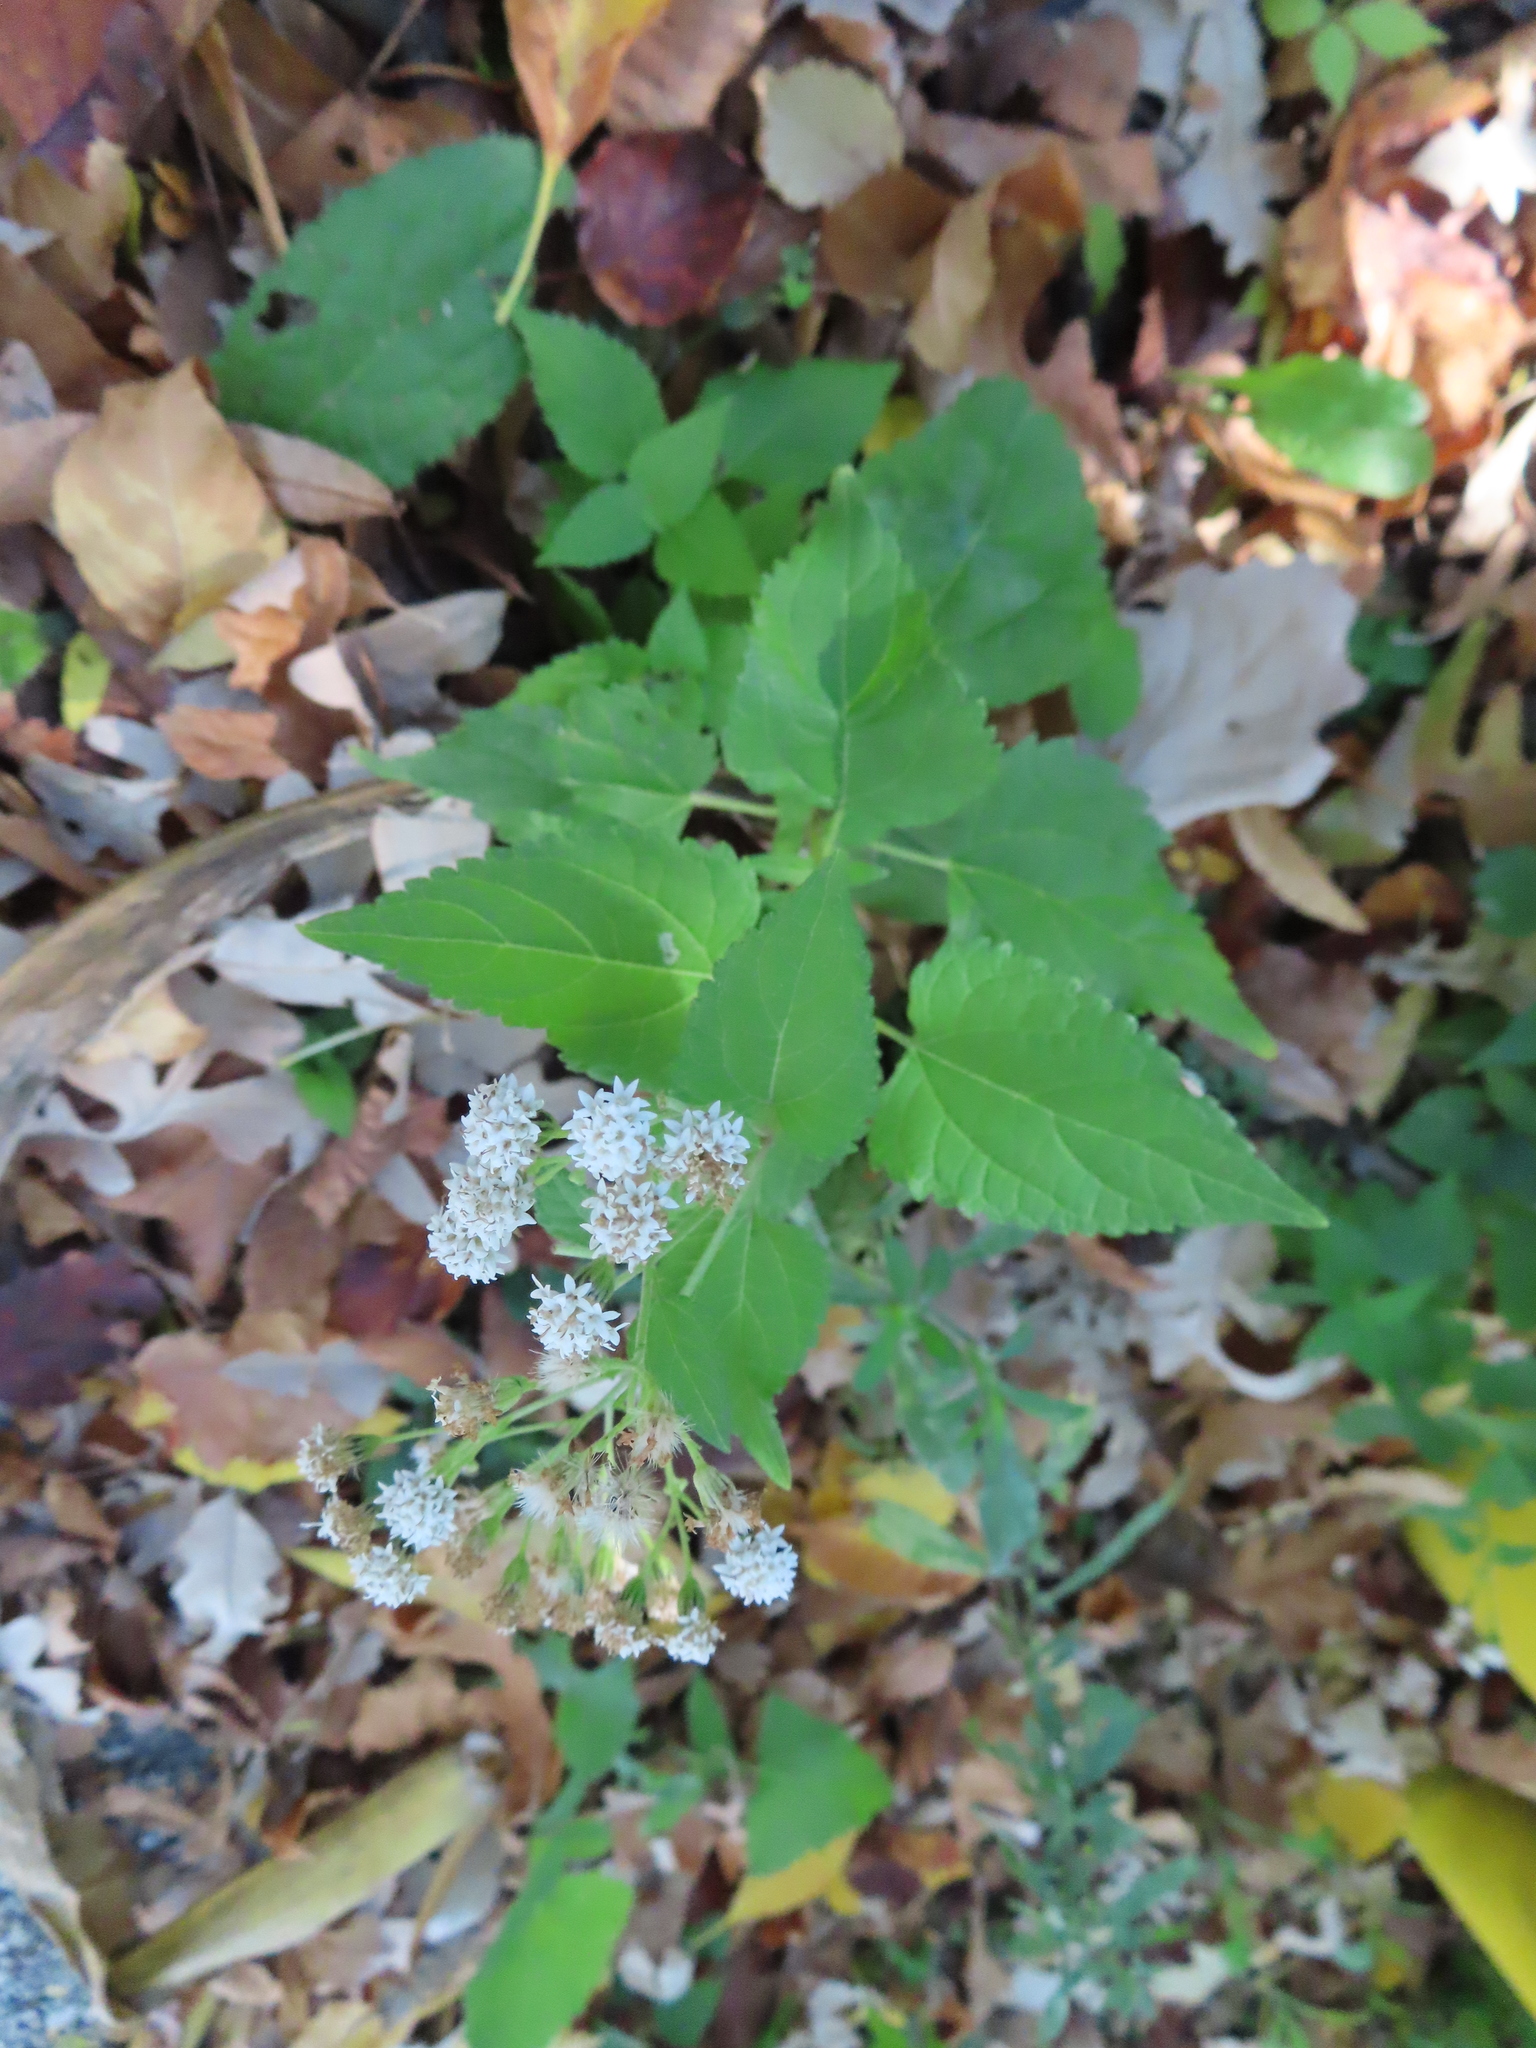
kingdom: Plantae
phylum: Tracheophyta
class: Magnoliopsida
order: Asterales
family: Asteraceae
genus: Ageratina
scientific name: Ageratina altissima
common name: White snakeroot
